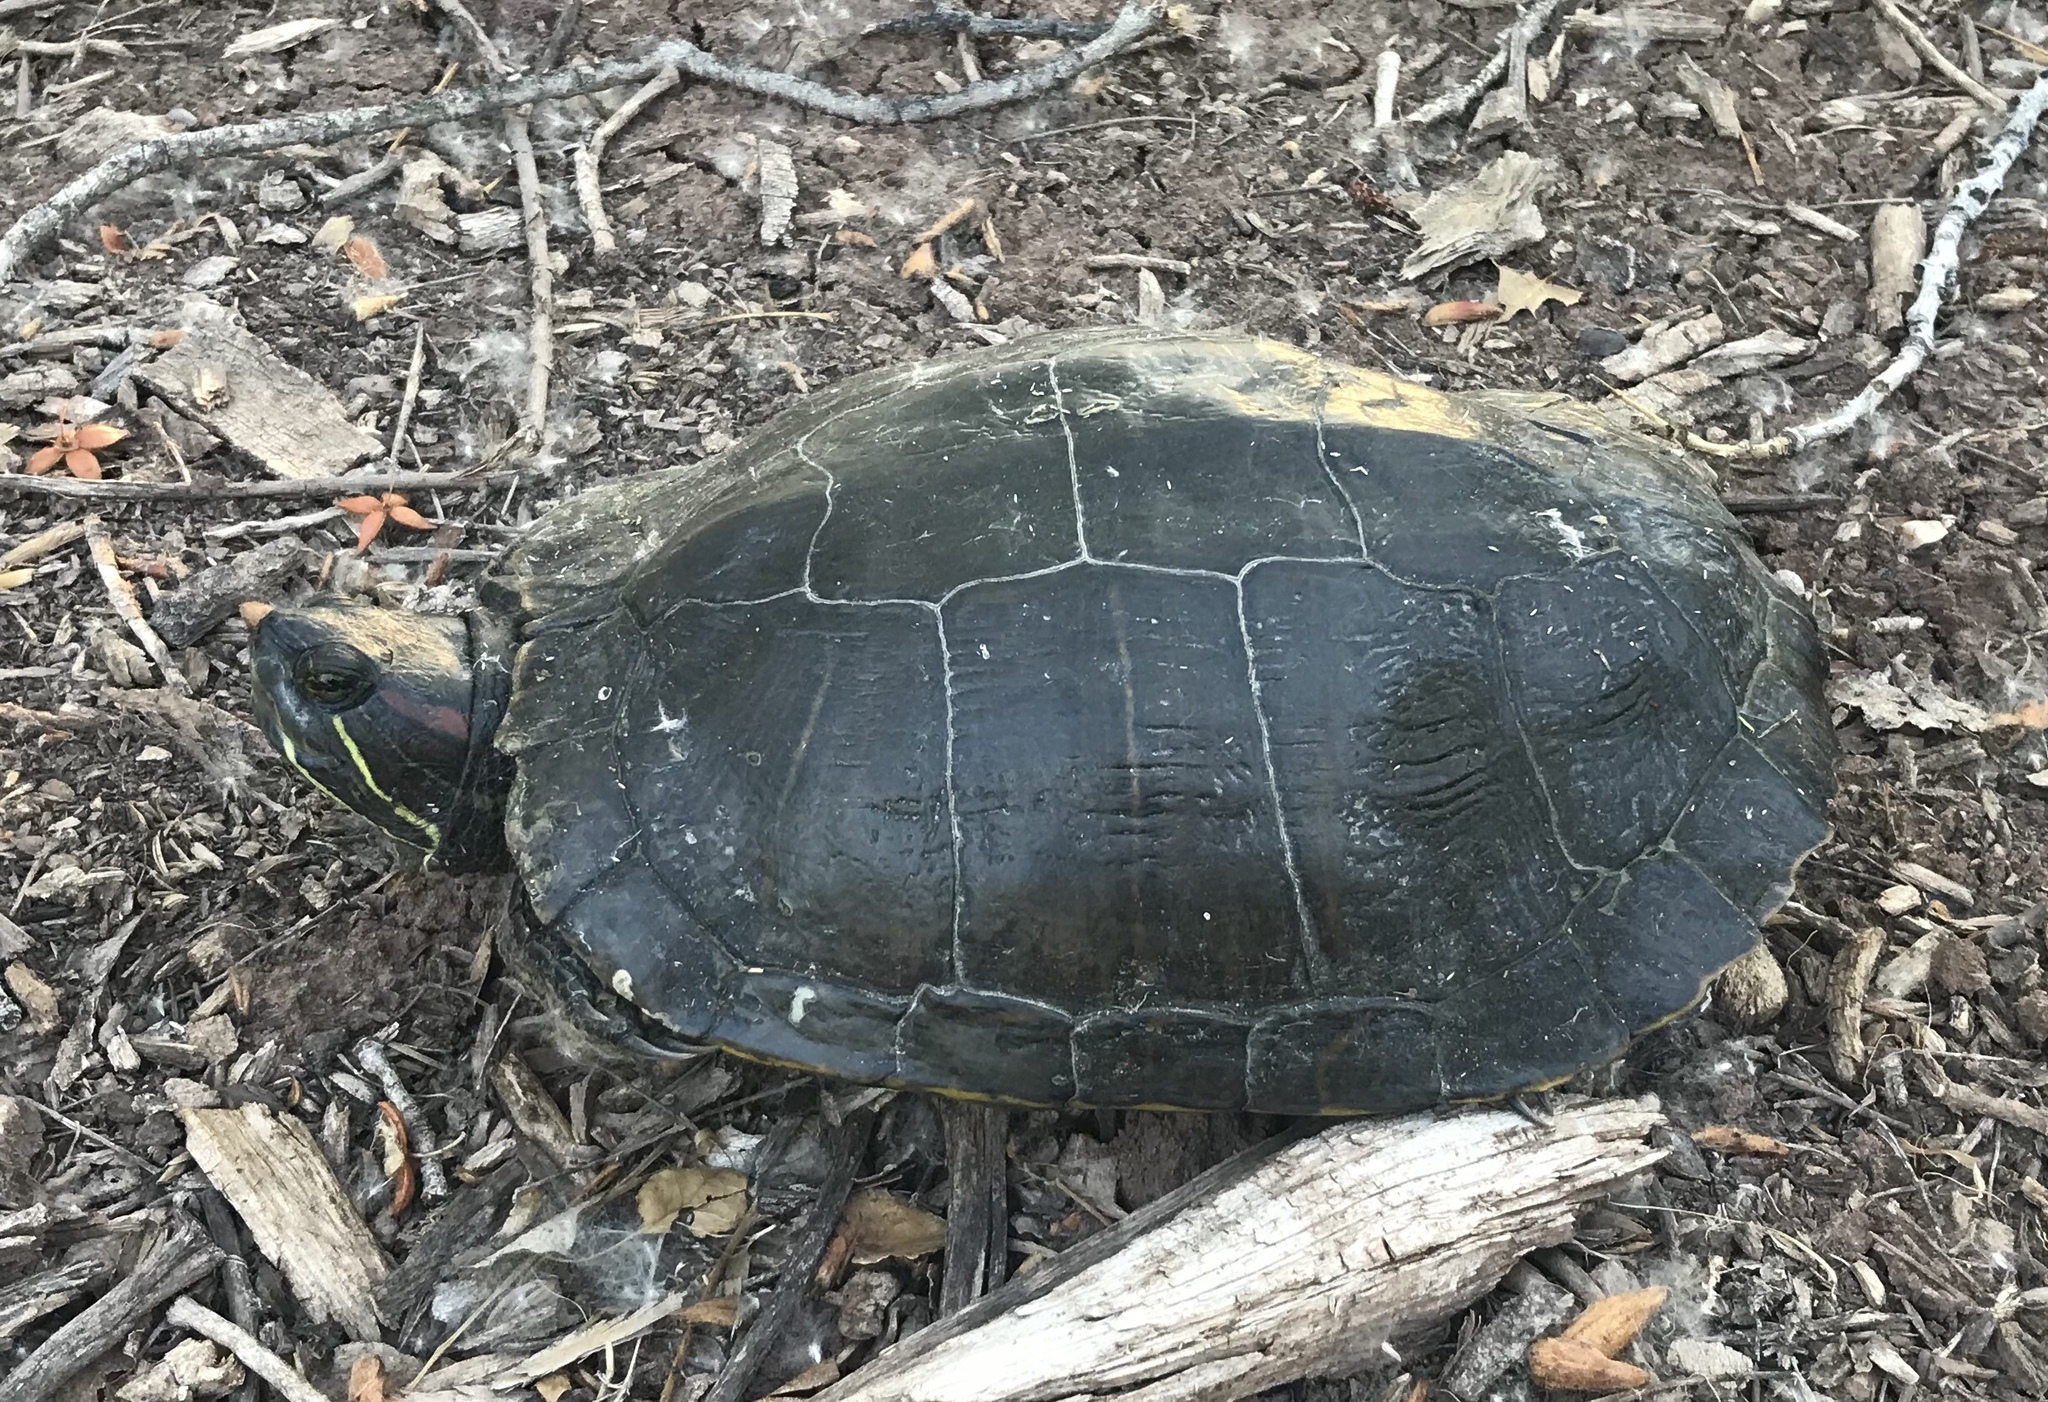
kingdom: Animalia
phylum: Chordata
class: Testudines
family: Emydidae
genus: Trachemys
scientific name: Trachemys scripta
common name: Slider
